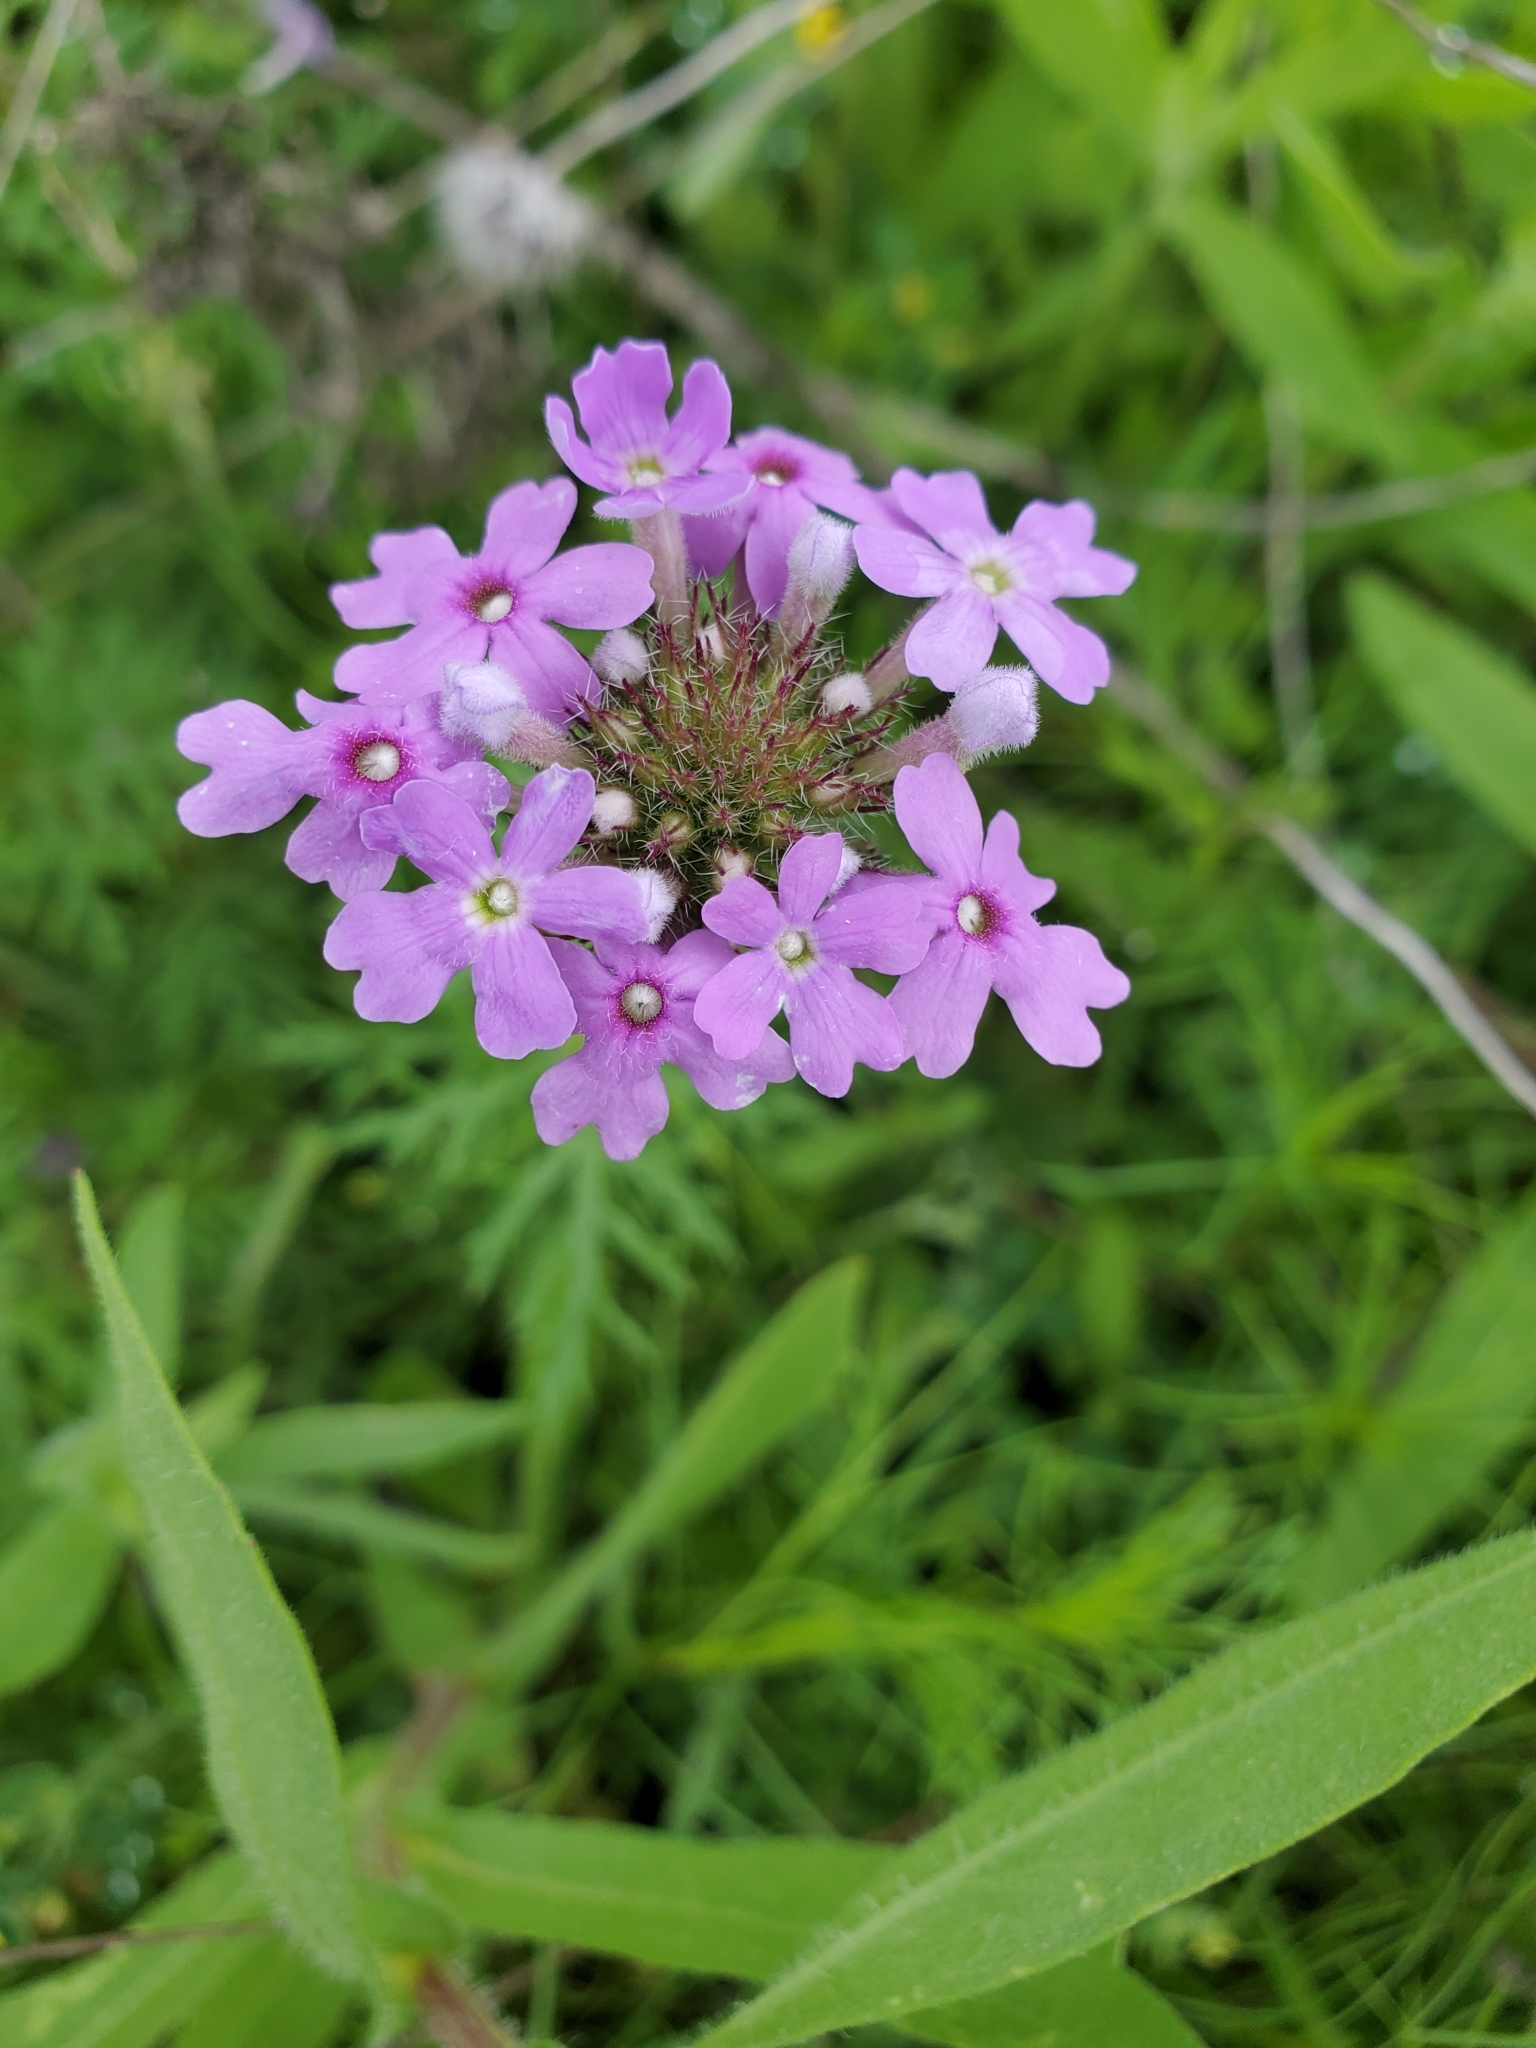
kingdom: Plantae
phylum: Tracheophyta
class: Magnoliopsida
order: Lamiales
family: Verbenaceae
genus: Verbena
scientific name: Verbena bipinnatifida
